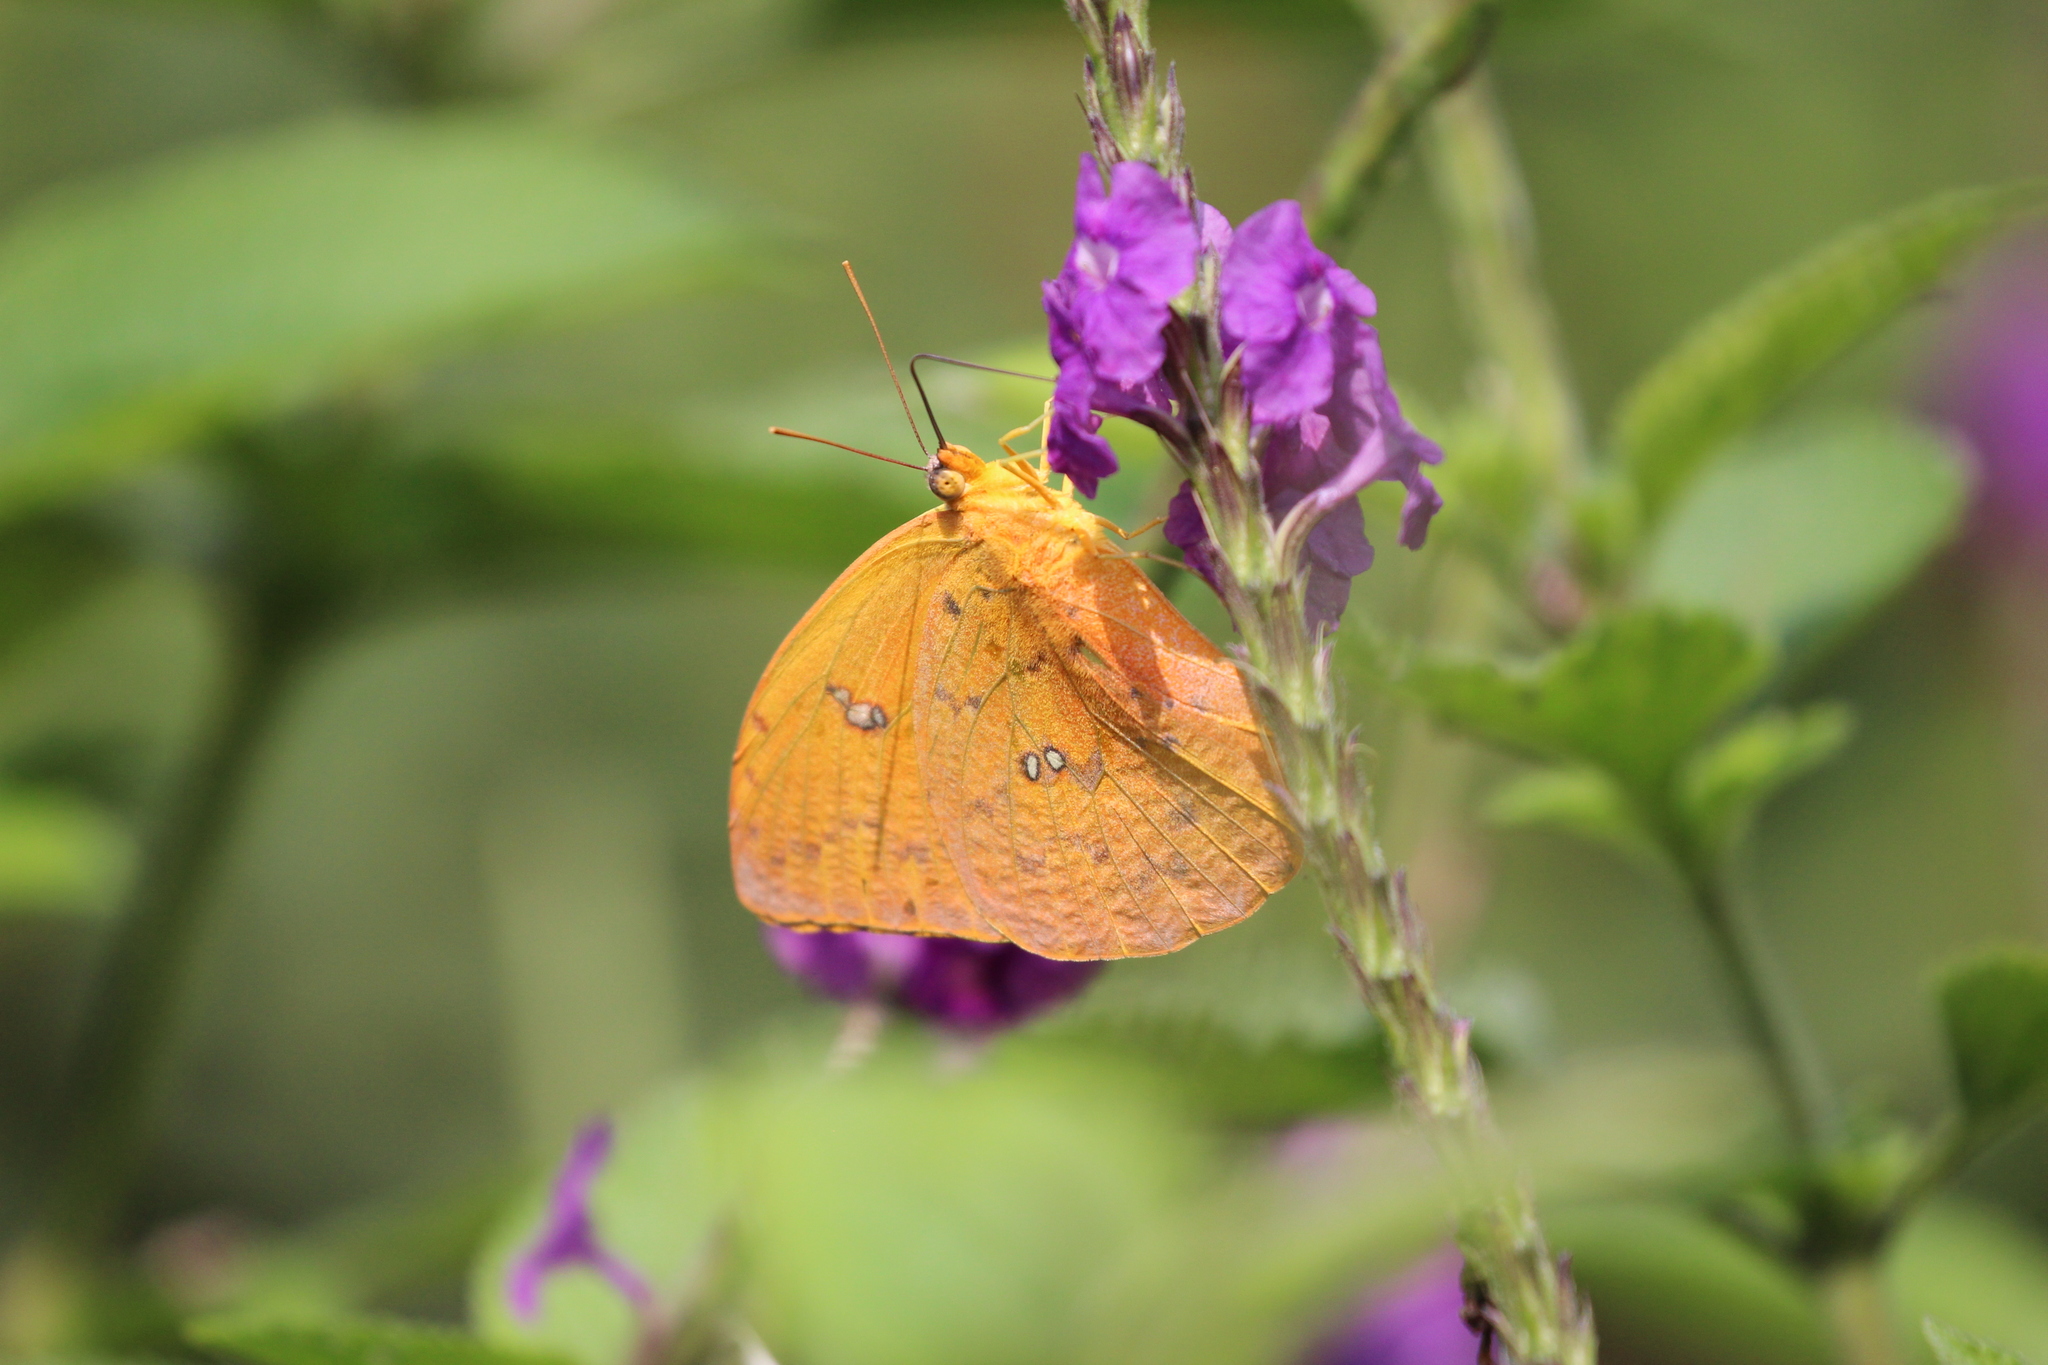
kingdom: Animalia
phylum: Arthropoda
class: Insecta
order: Lepidoptera
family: Pieridae
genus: Phoebis
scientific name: Phoebis philea
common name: Orange-barred giant sulphur
